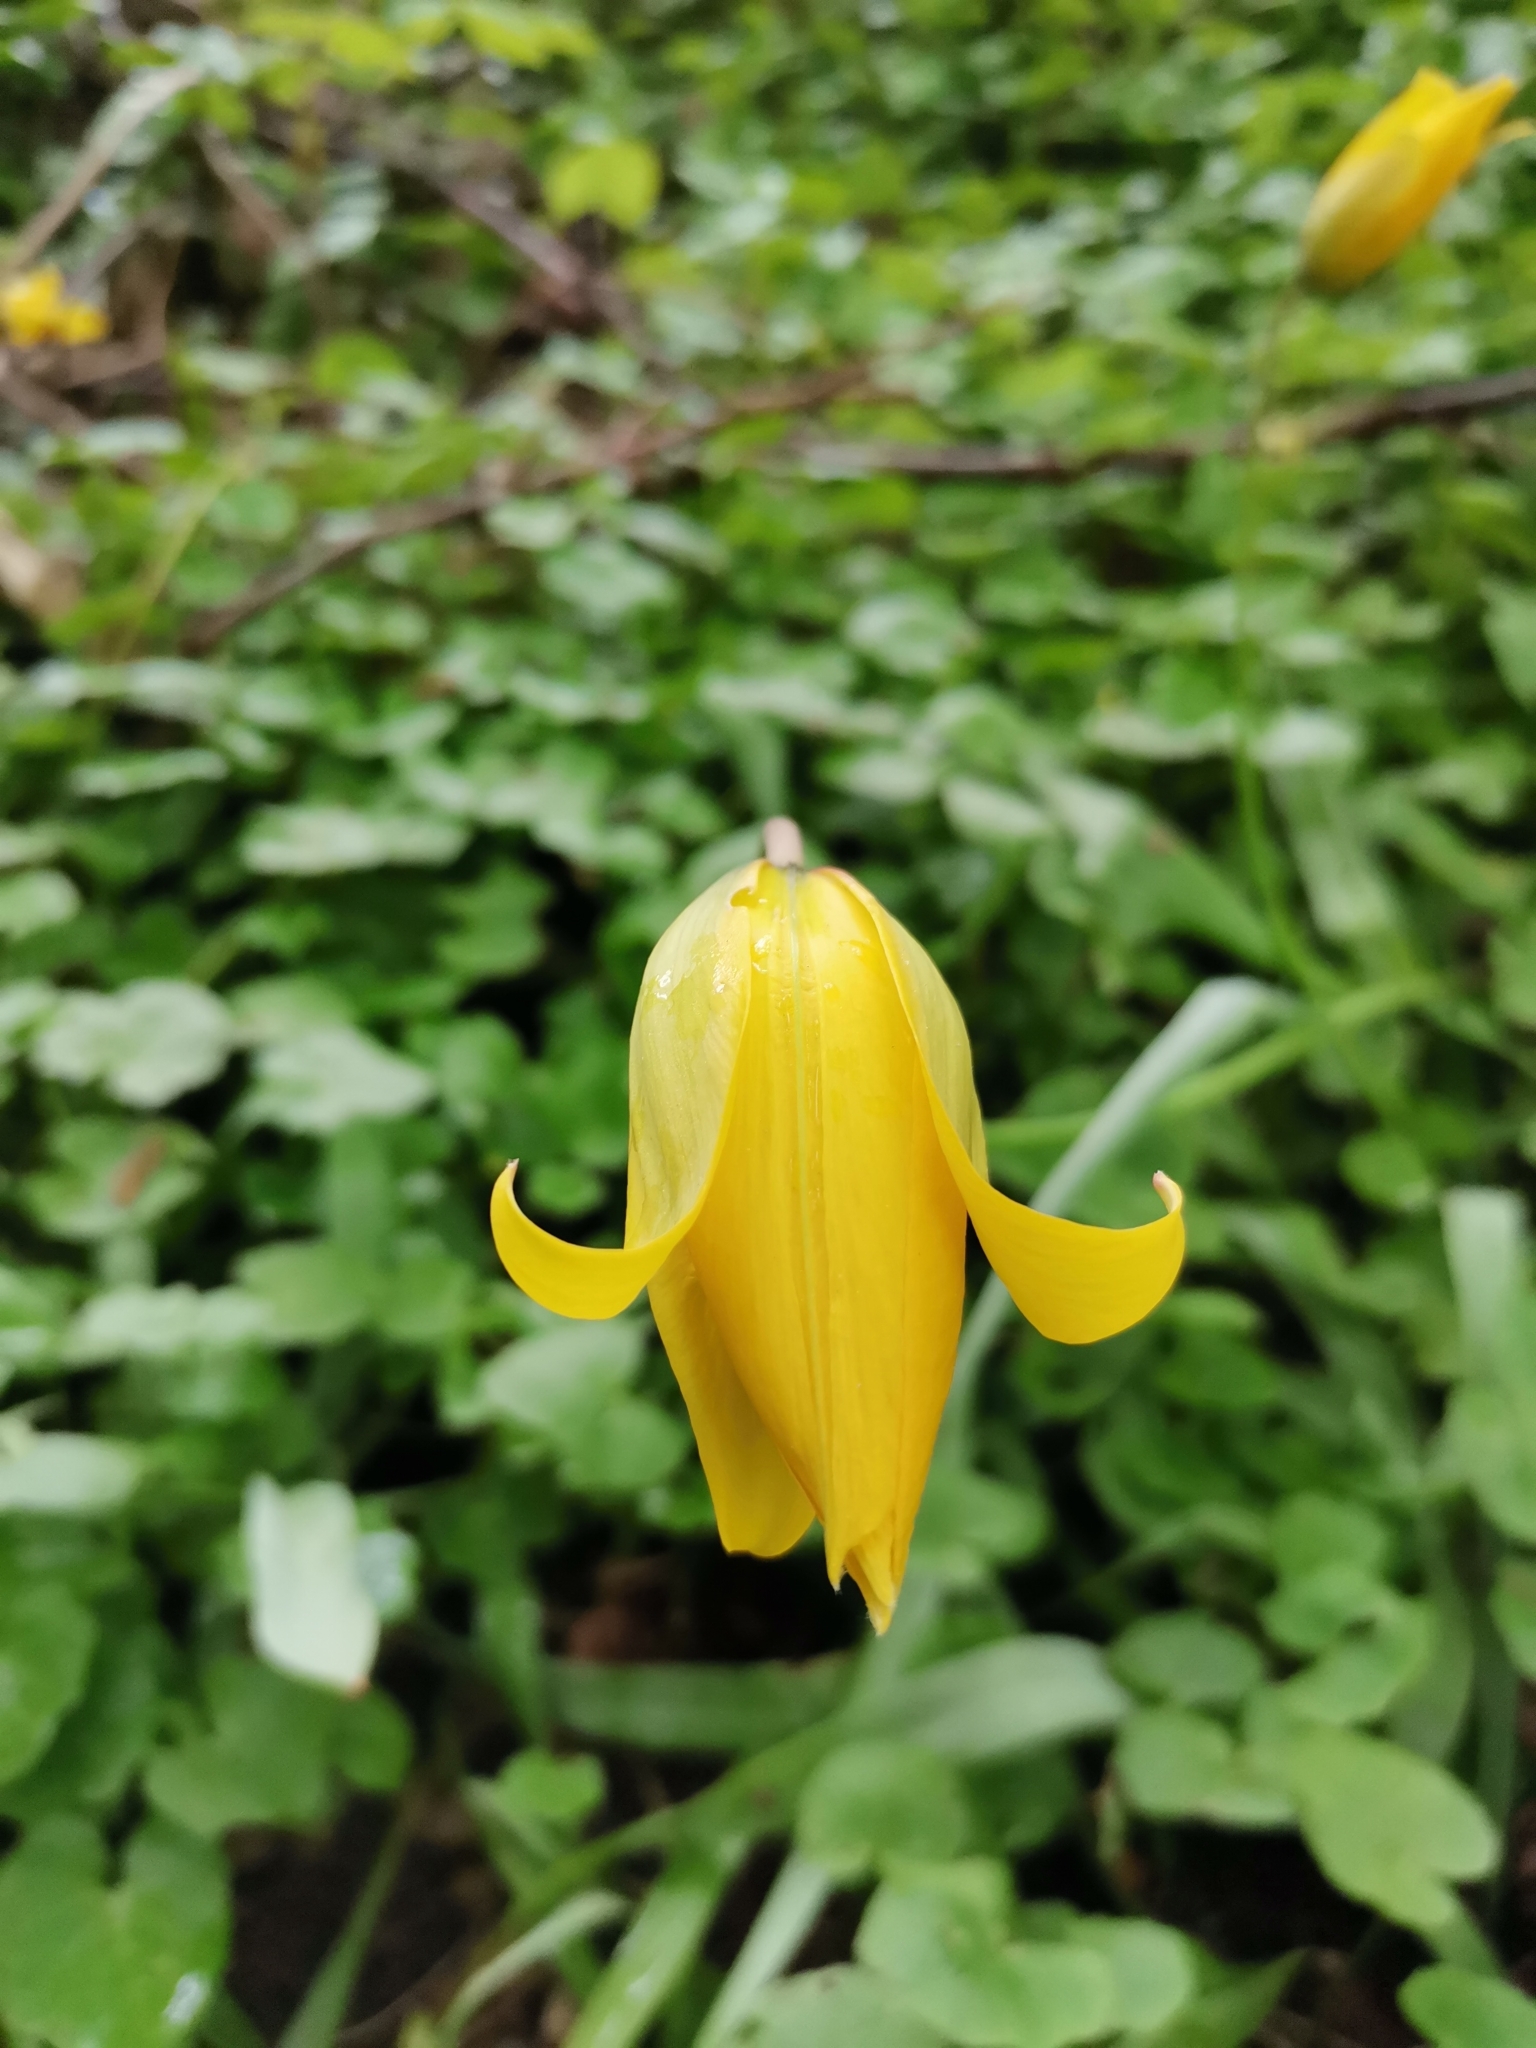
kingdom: Plantae
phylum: Tracheophyta
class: Liliopsida
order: Liliales
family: Liliaceae
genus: Tulipa
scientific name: Tulipa sylvestris
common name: Wild tulip
